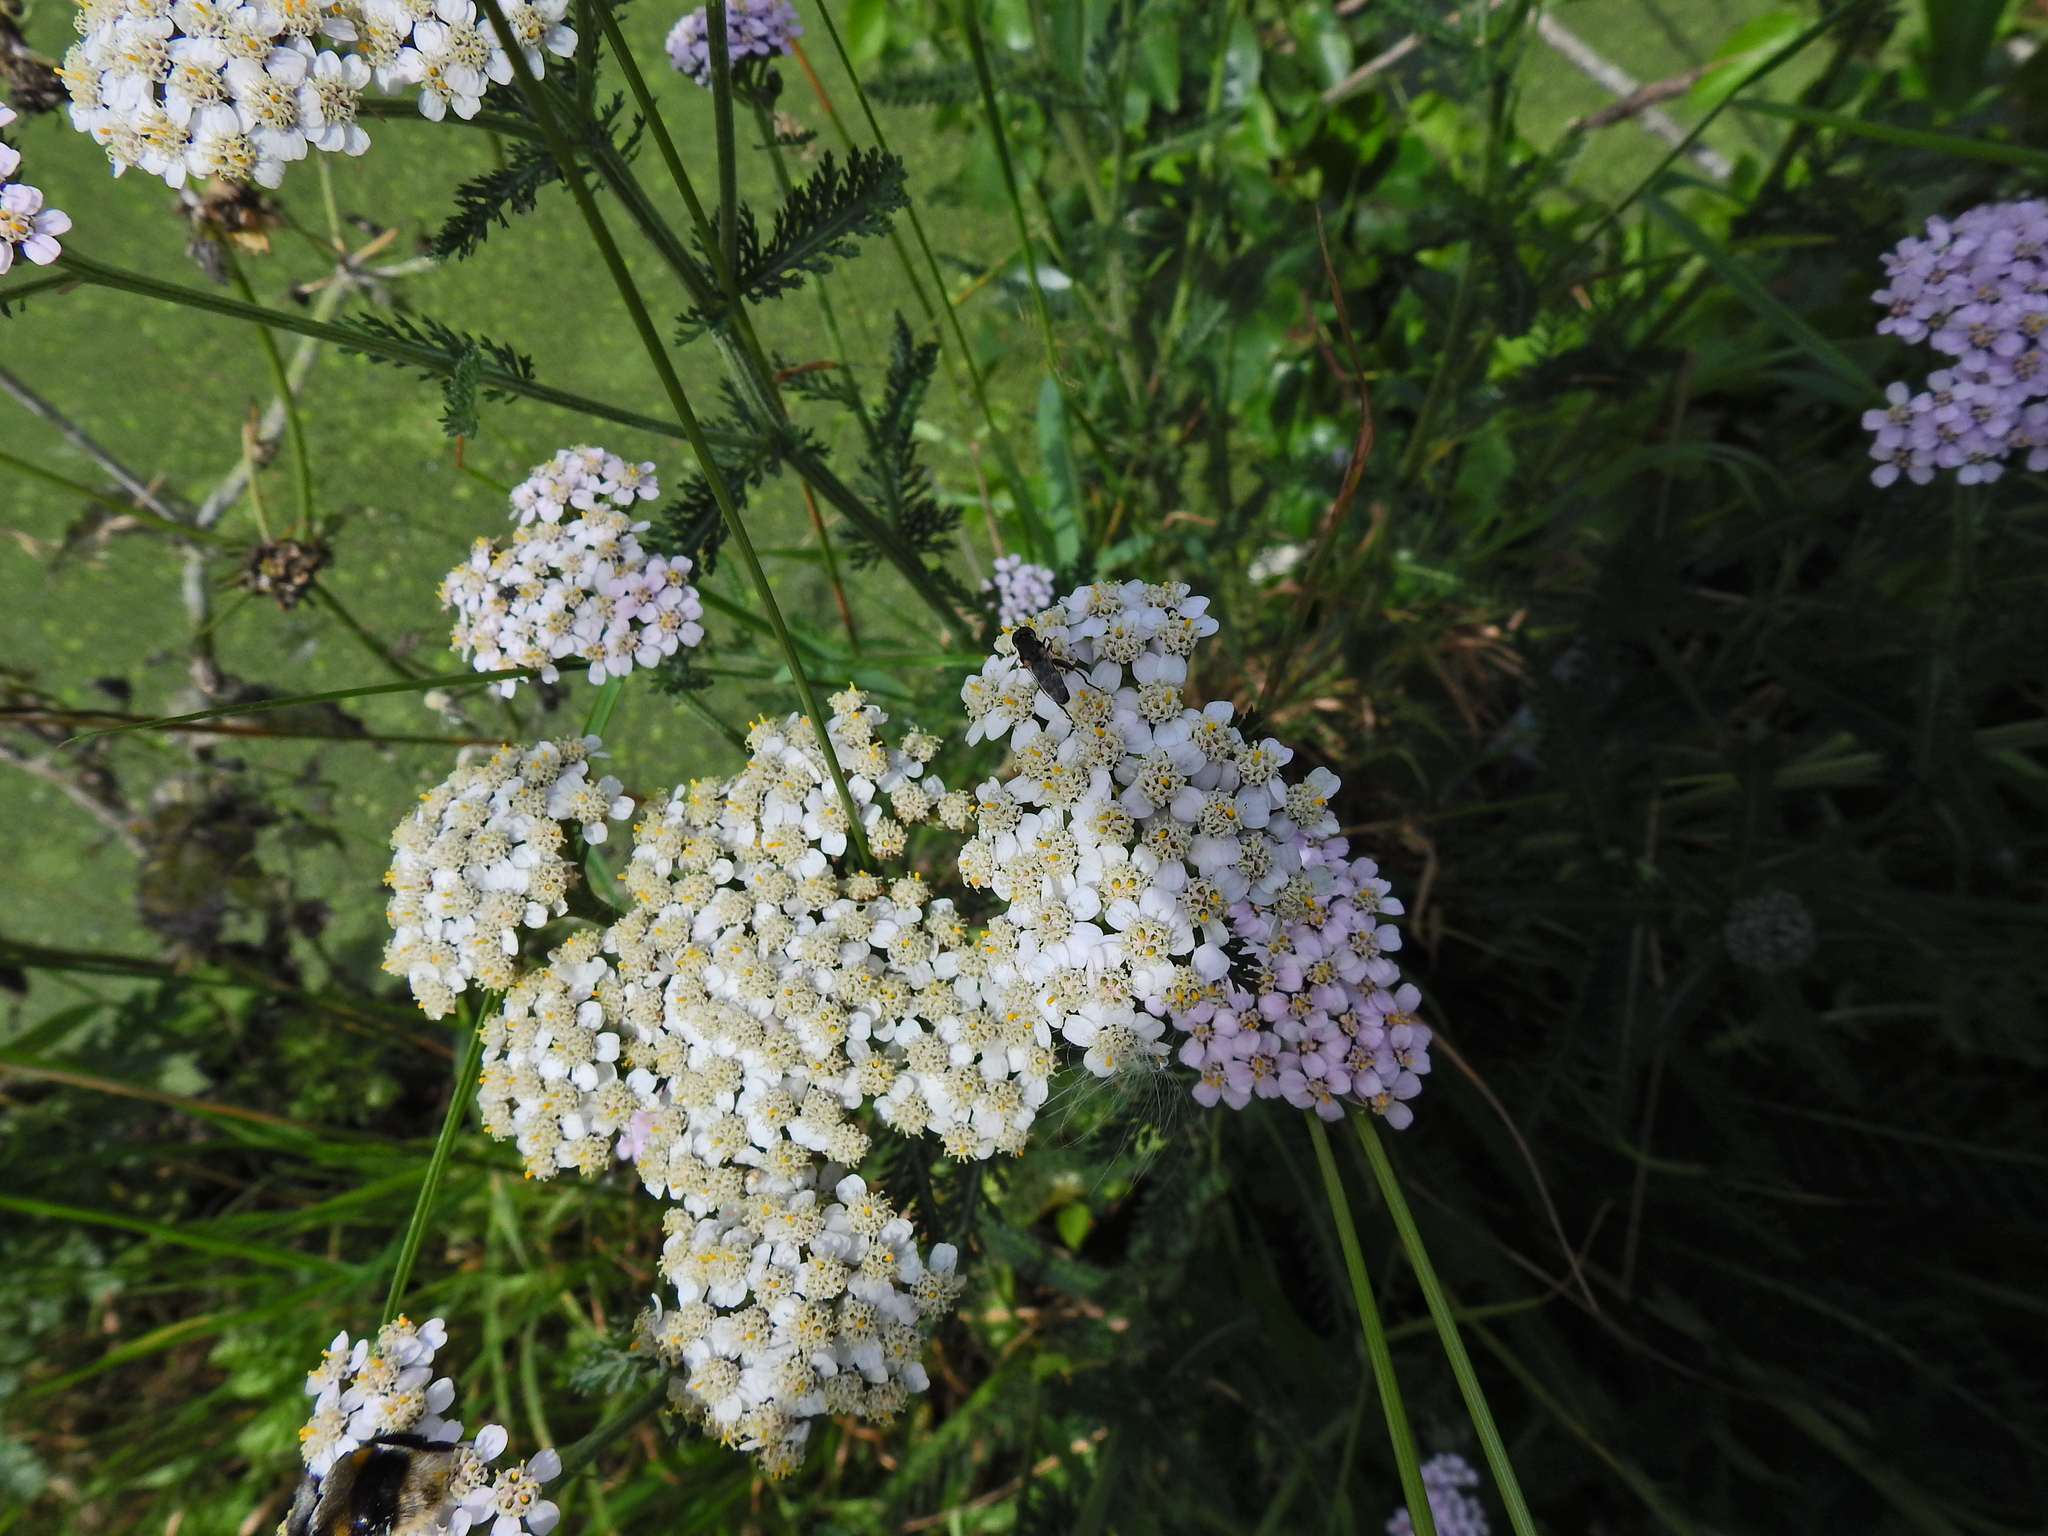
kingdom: Plantae
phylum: Tracheophyta
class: Magnoliopsida
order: Asterales
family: Asteraceae
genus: Achillea
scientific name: Achillea millefolium
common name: Yarrow
